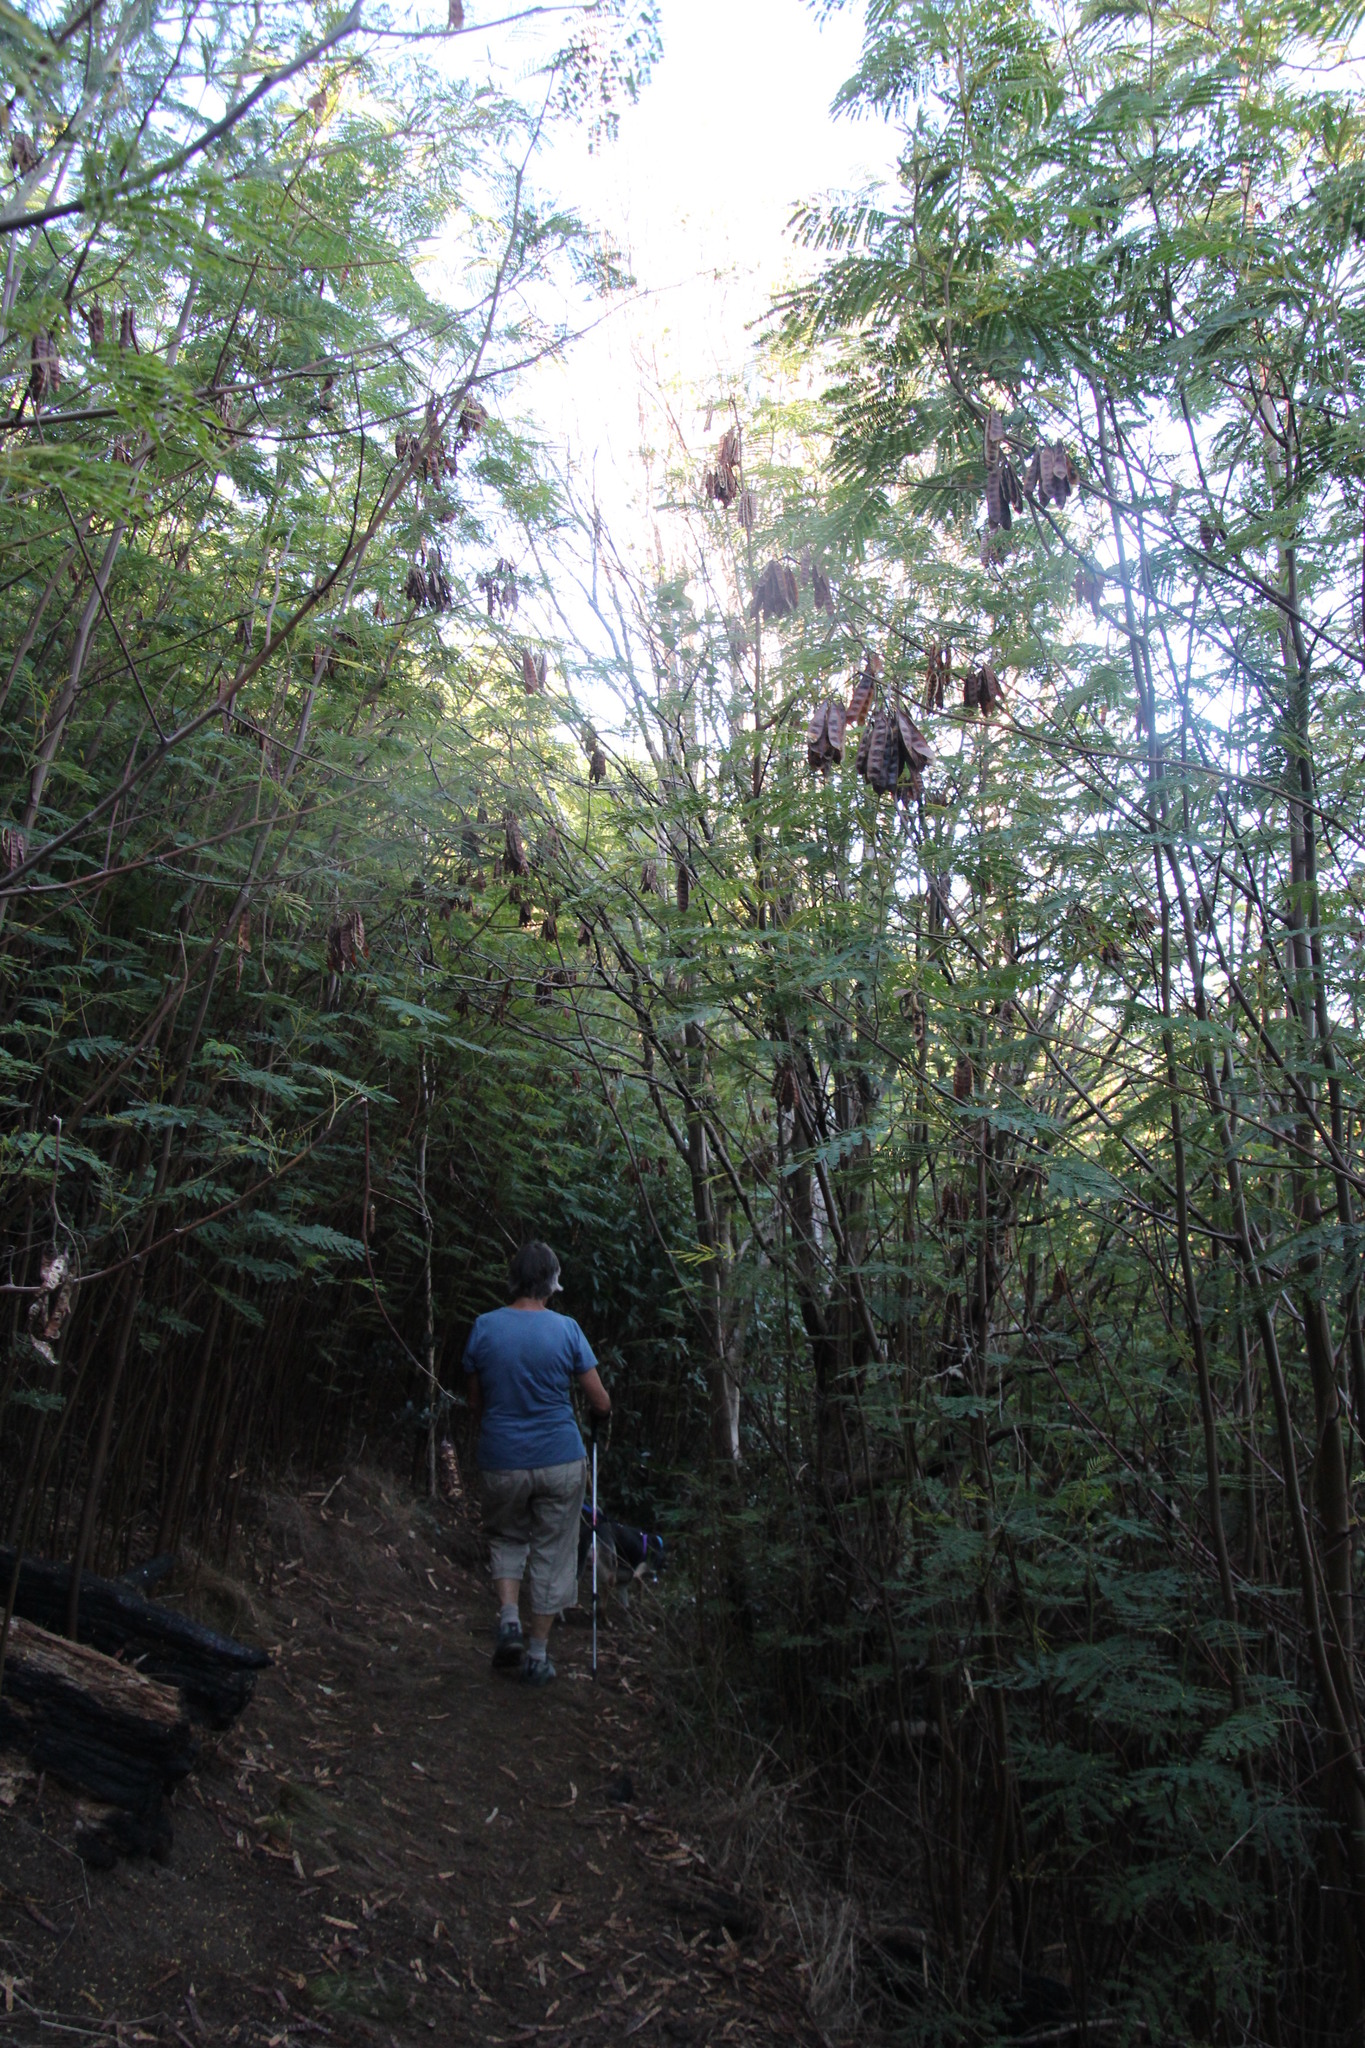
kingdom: Plantae
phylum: Tracheophyta
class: Magnoliopsida
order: Fabales
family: Fabaceae
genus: Paraserianthes
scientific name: Paraserianthes lophantha
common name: Plume albizia
